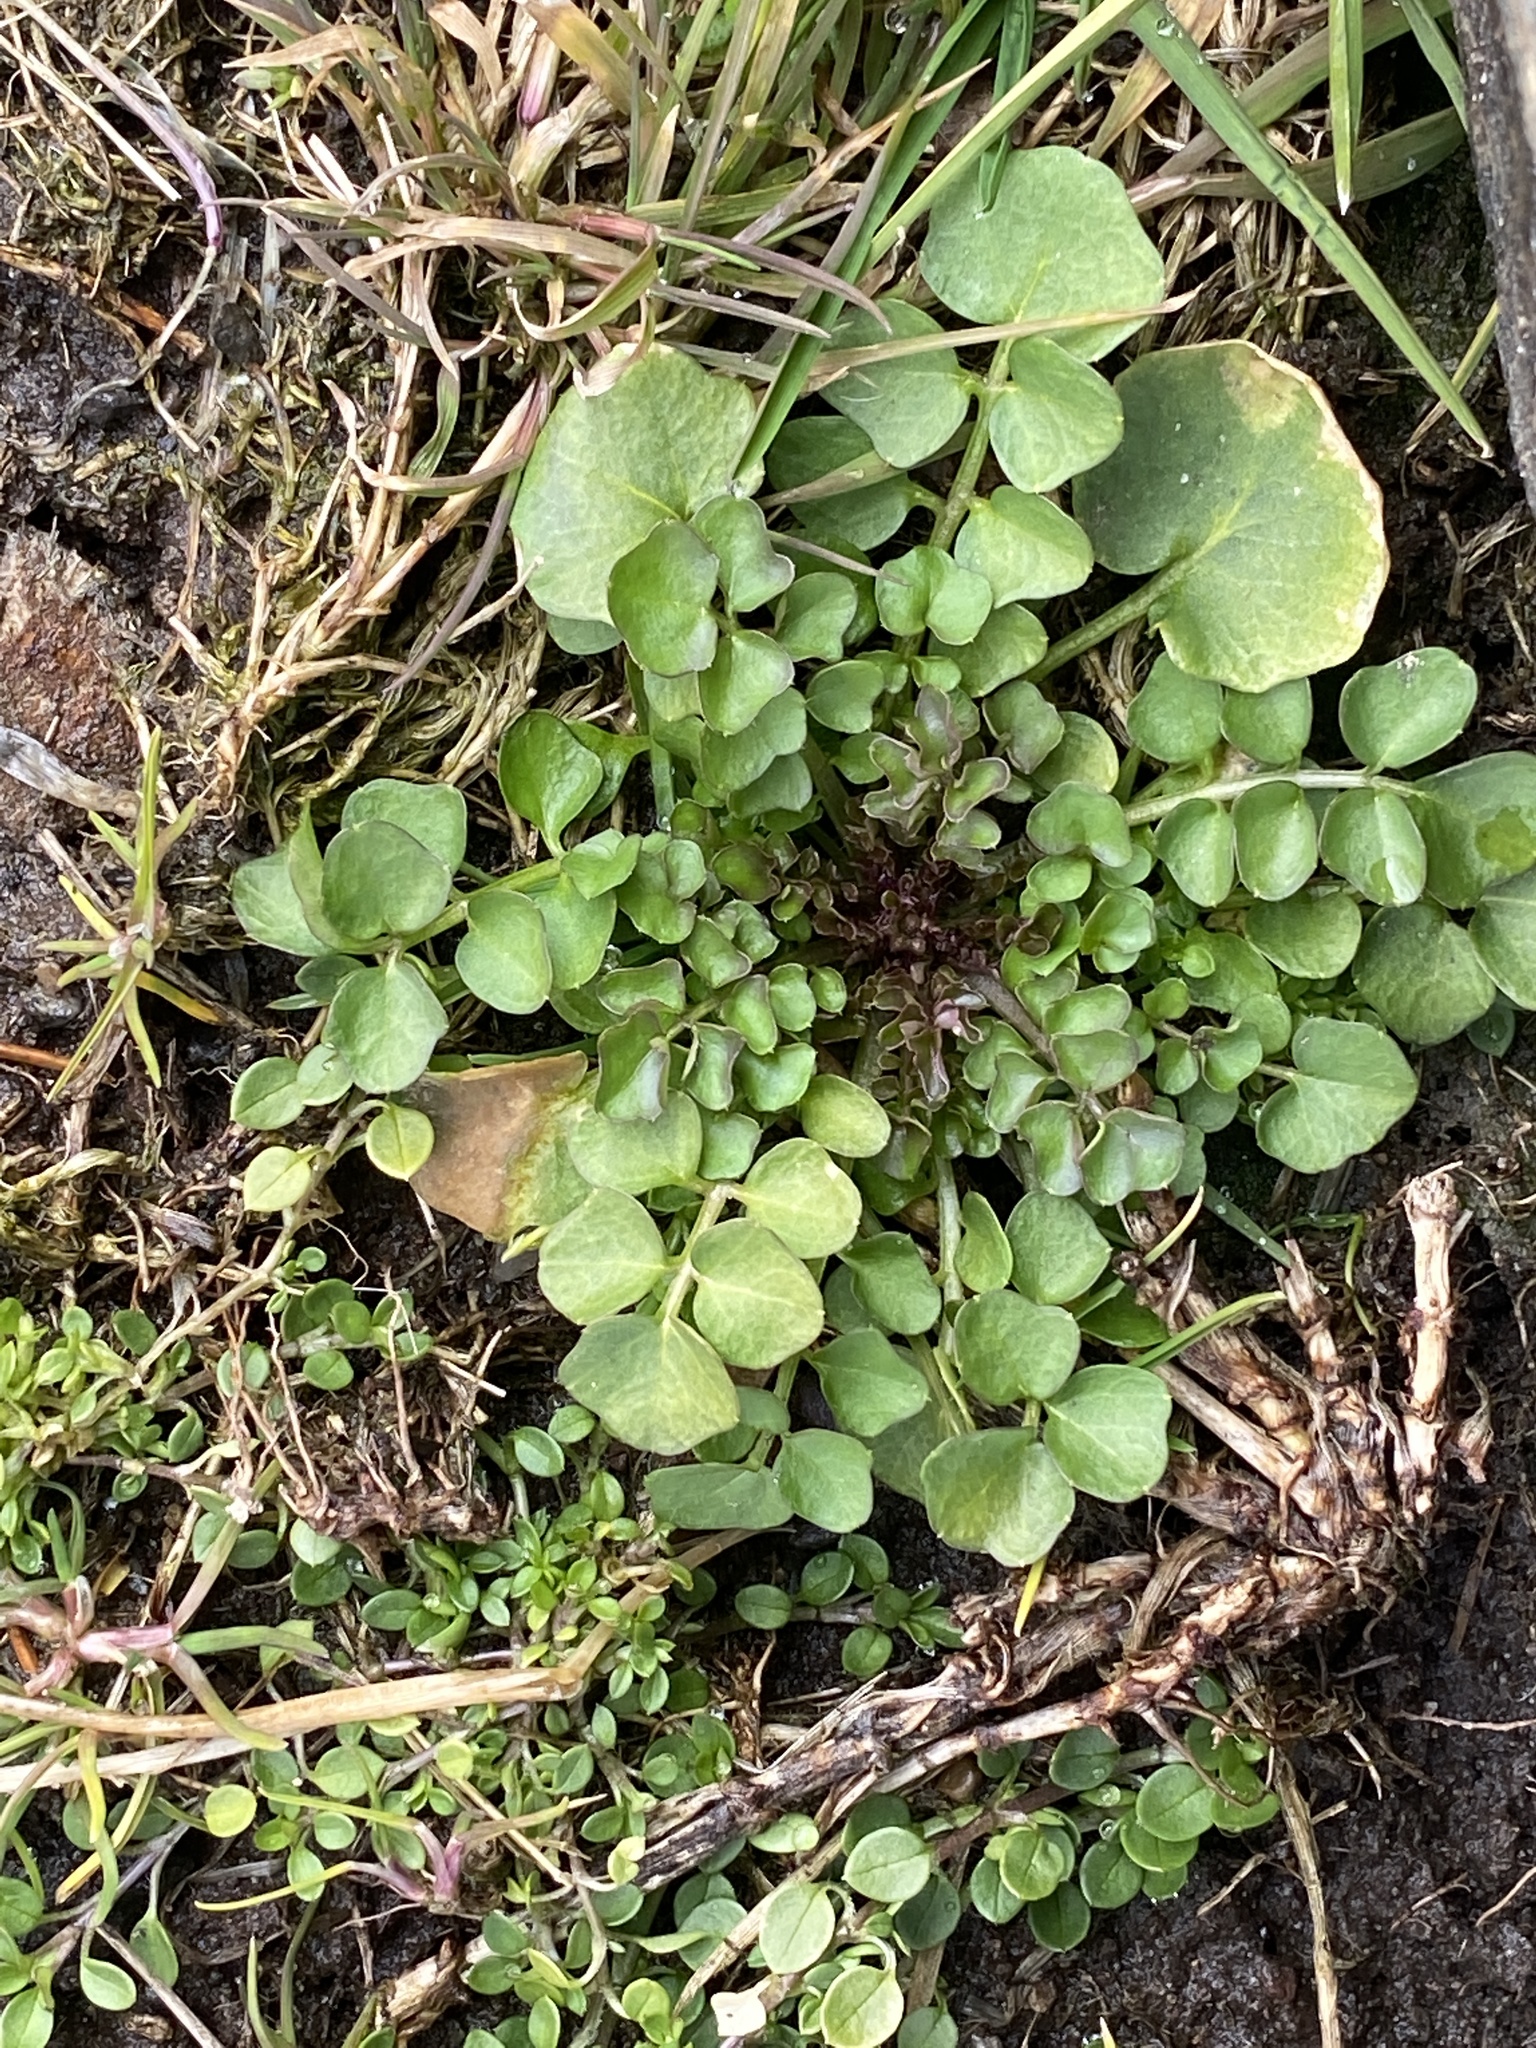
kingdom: Plantae
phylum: Tracheophyta
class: Magnoliopsida
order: Brassicales
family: Brassicaceae
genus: Cardamine
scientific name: Cardamine hirsuta
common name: Hairy bittercress
